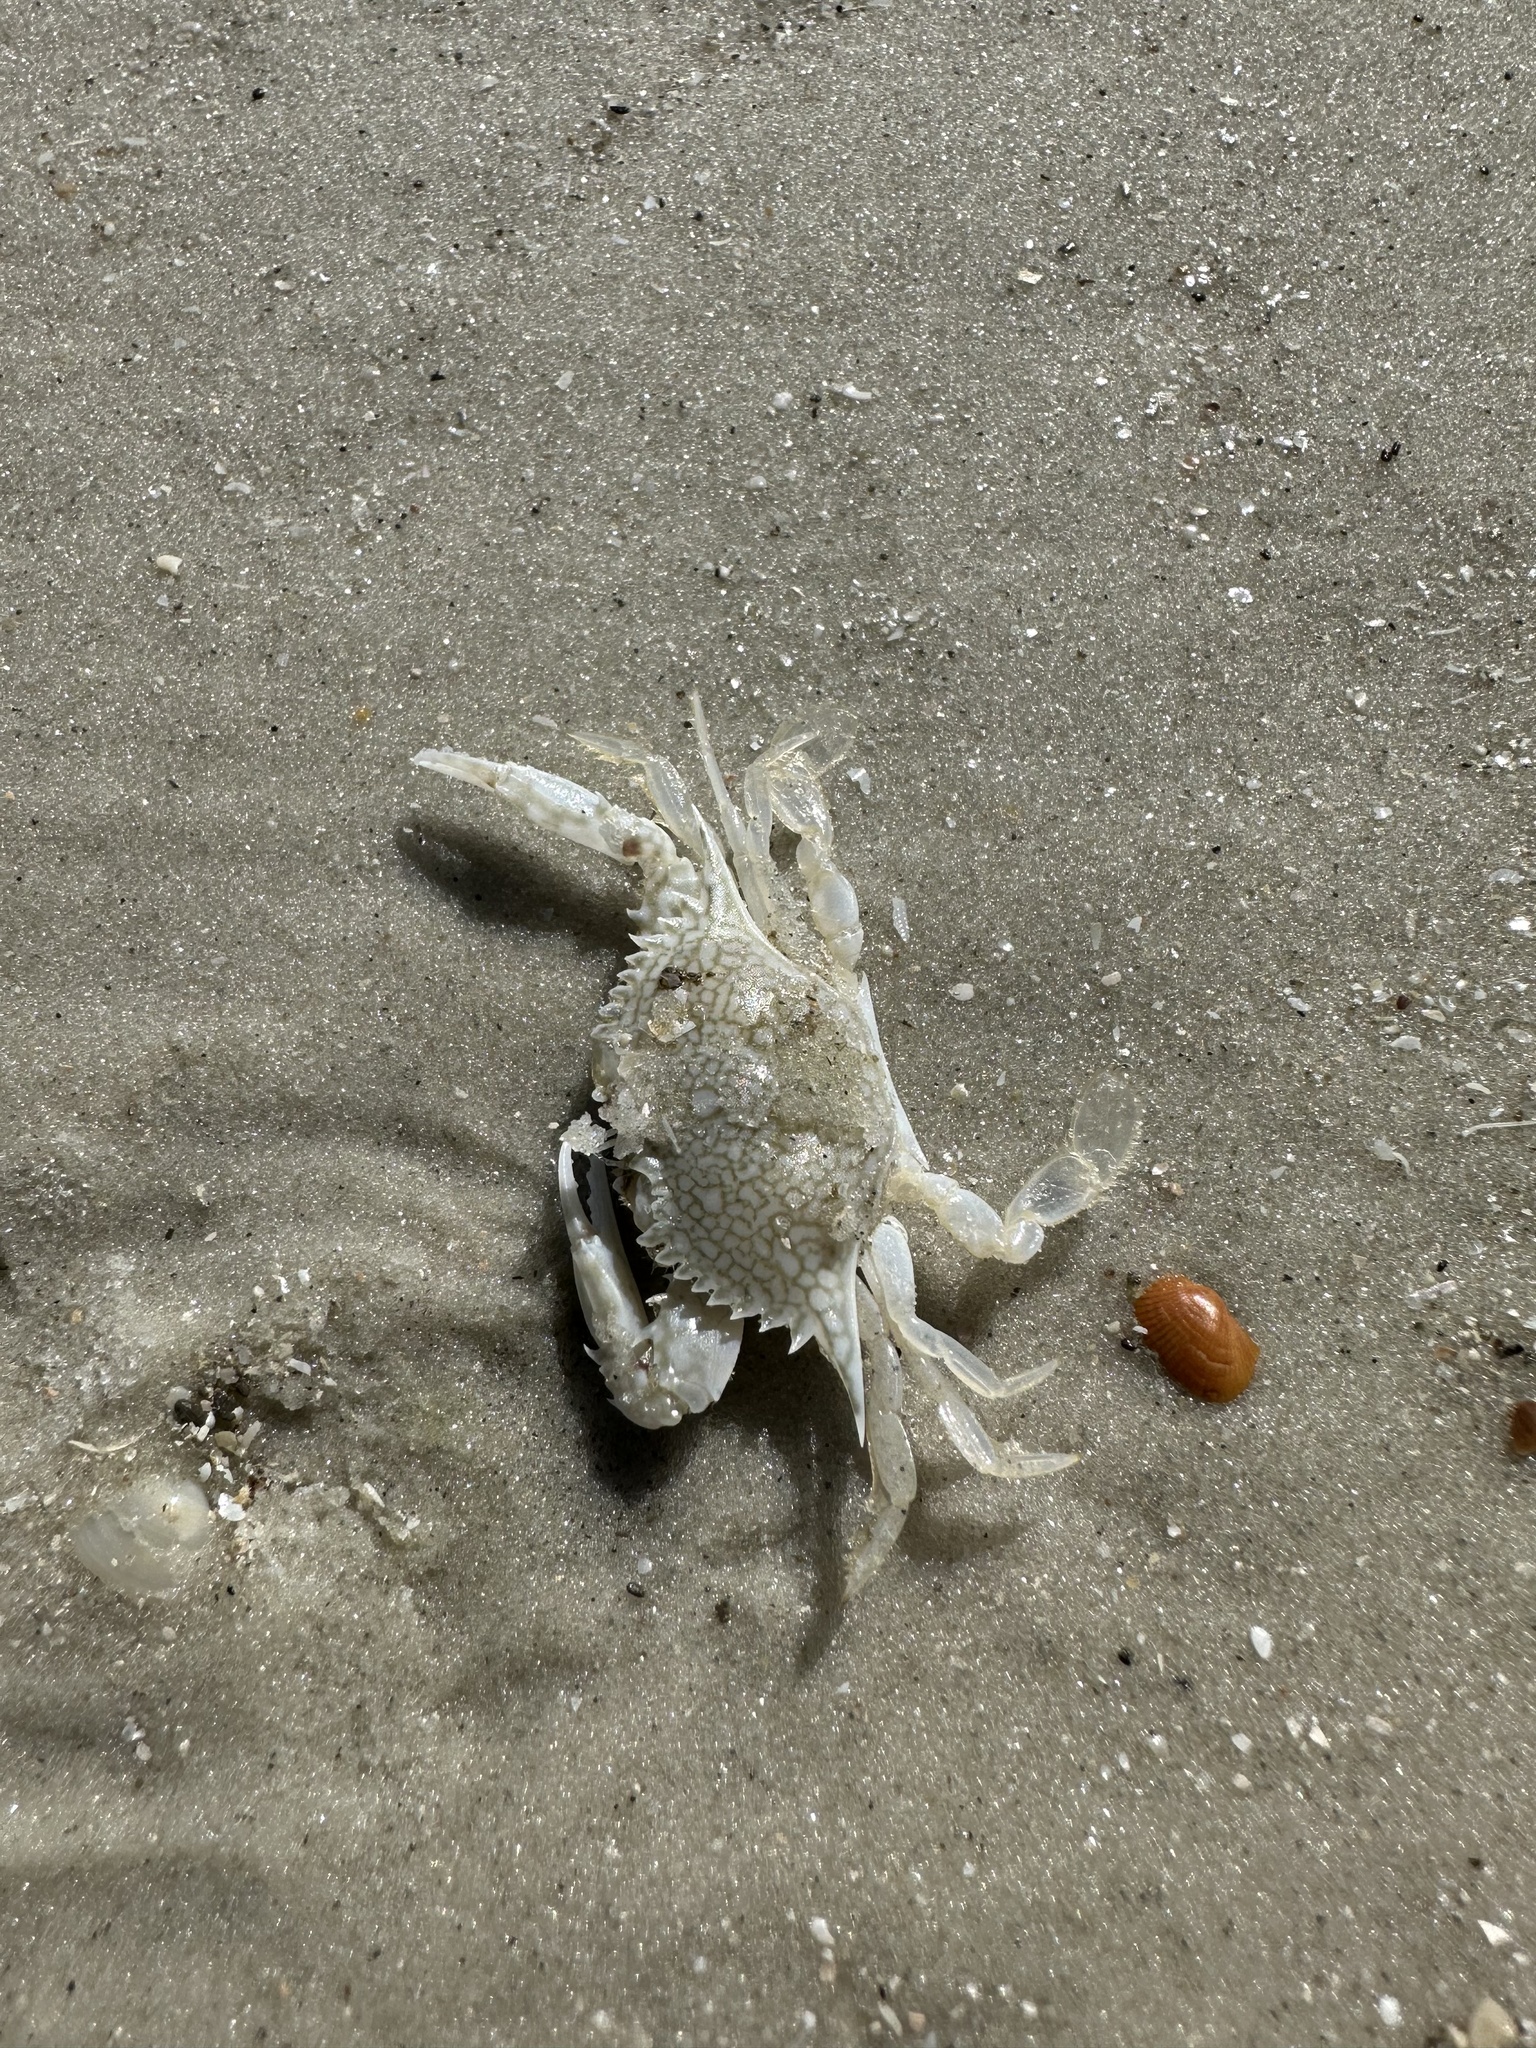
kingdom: Animalia
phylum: Arthropoda
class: Malacostraca
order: Decapoda
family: Portunidae
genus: Arenaeus
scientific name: Arenaeus cribrarius
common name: Speckled crab
